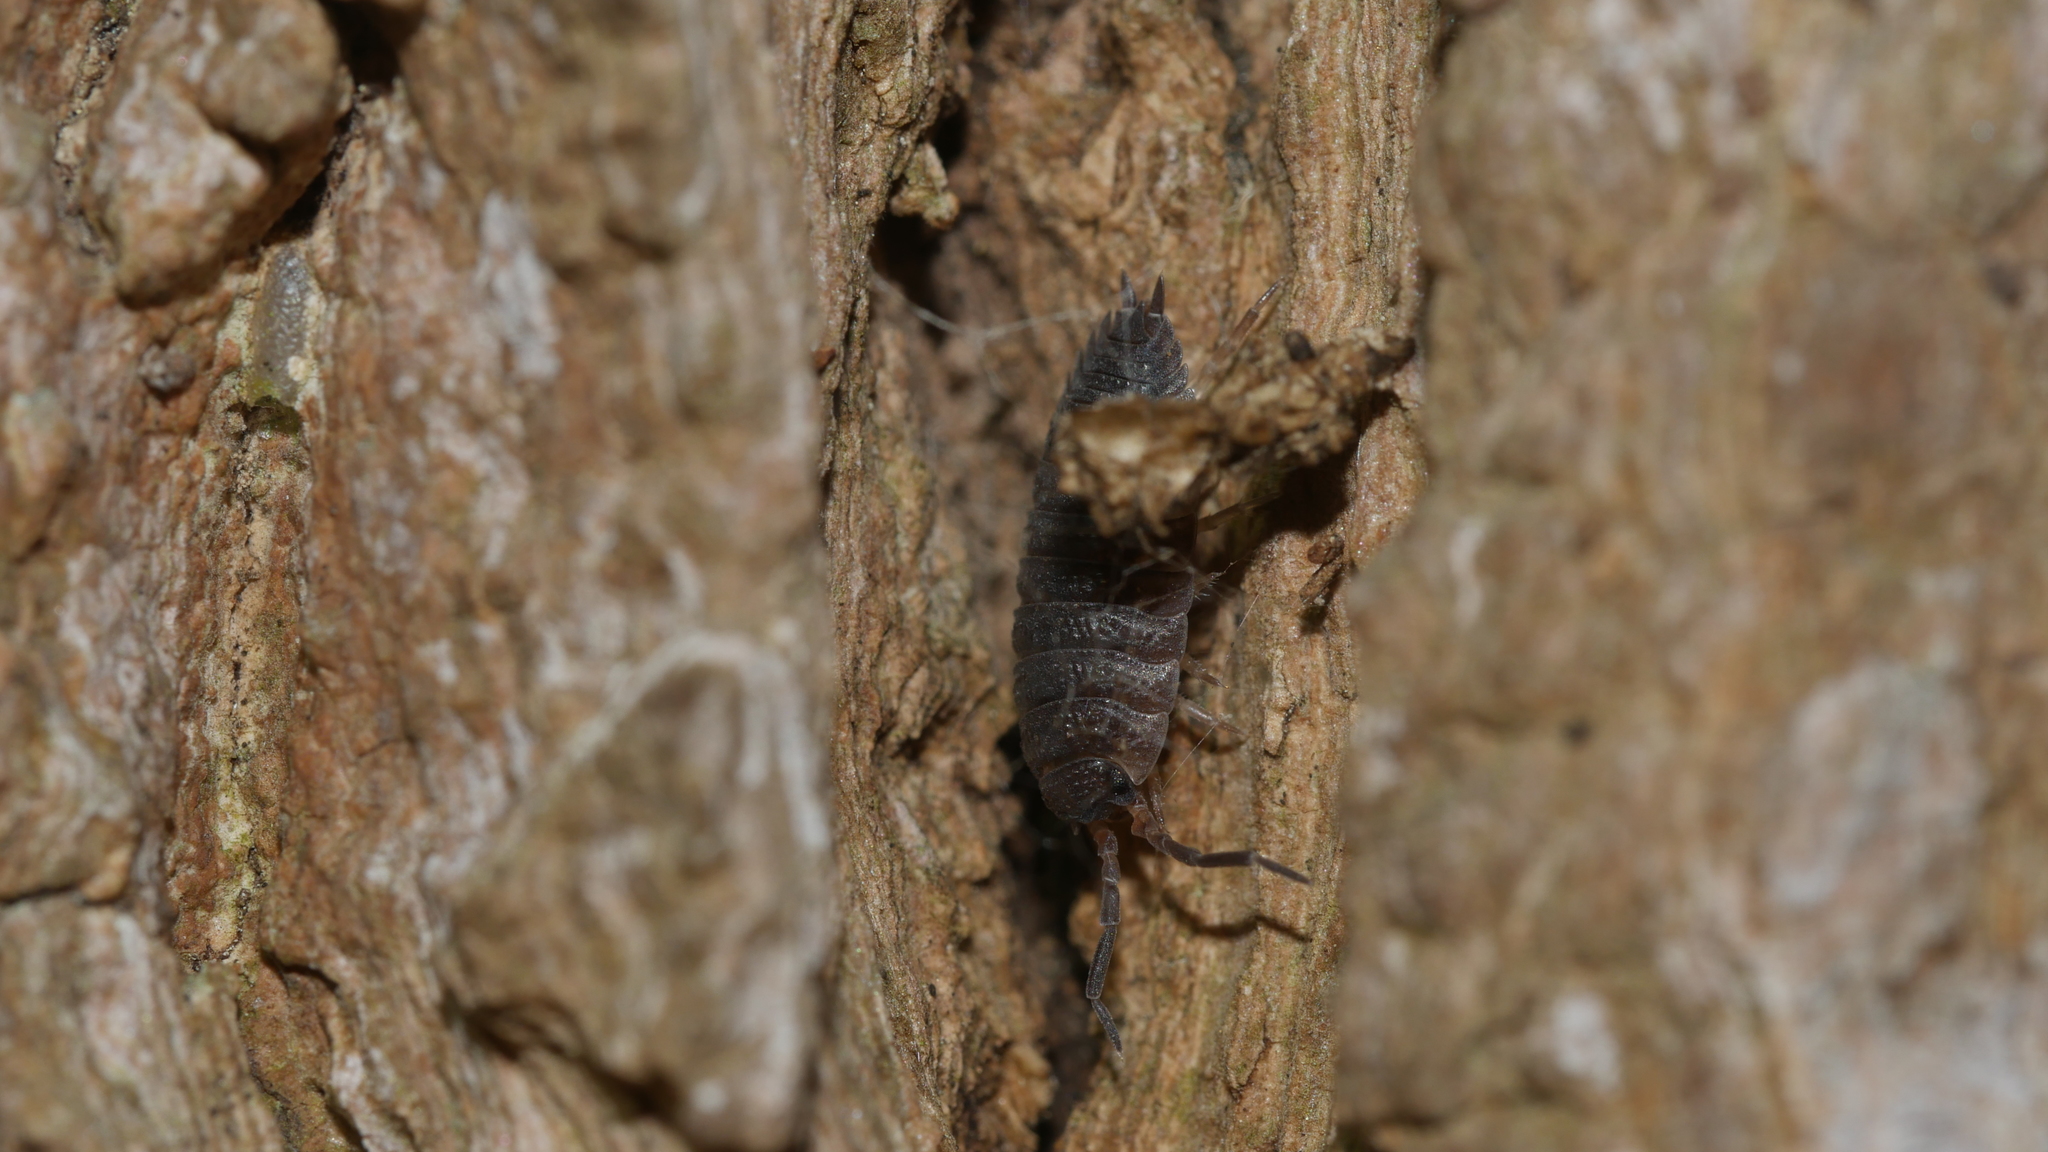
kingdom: Animalia
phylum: Arthropoda
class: Malacostraca
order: Isopoda
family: Porcellionidae
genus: Porcellio
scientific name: Porcellio scaber
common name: Common rough woodlouse
